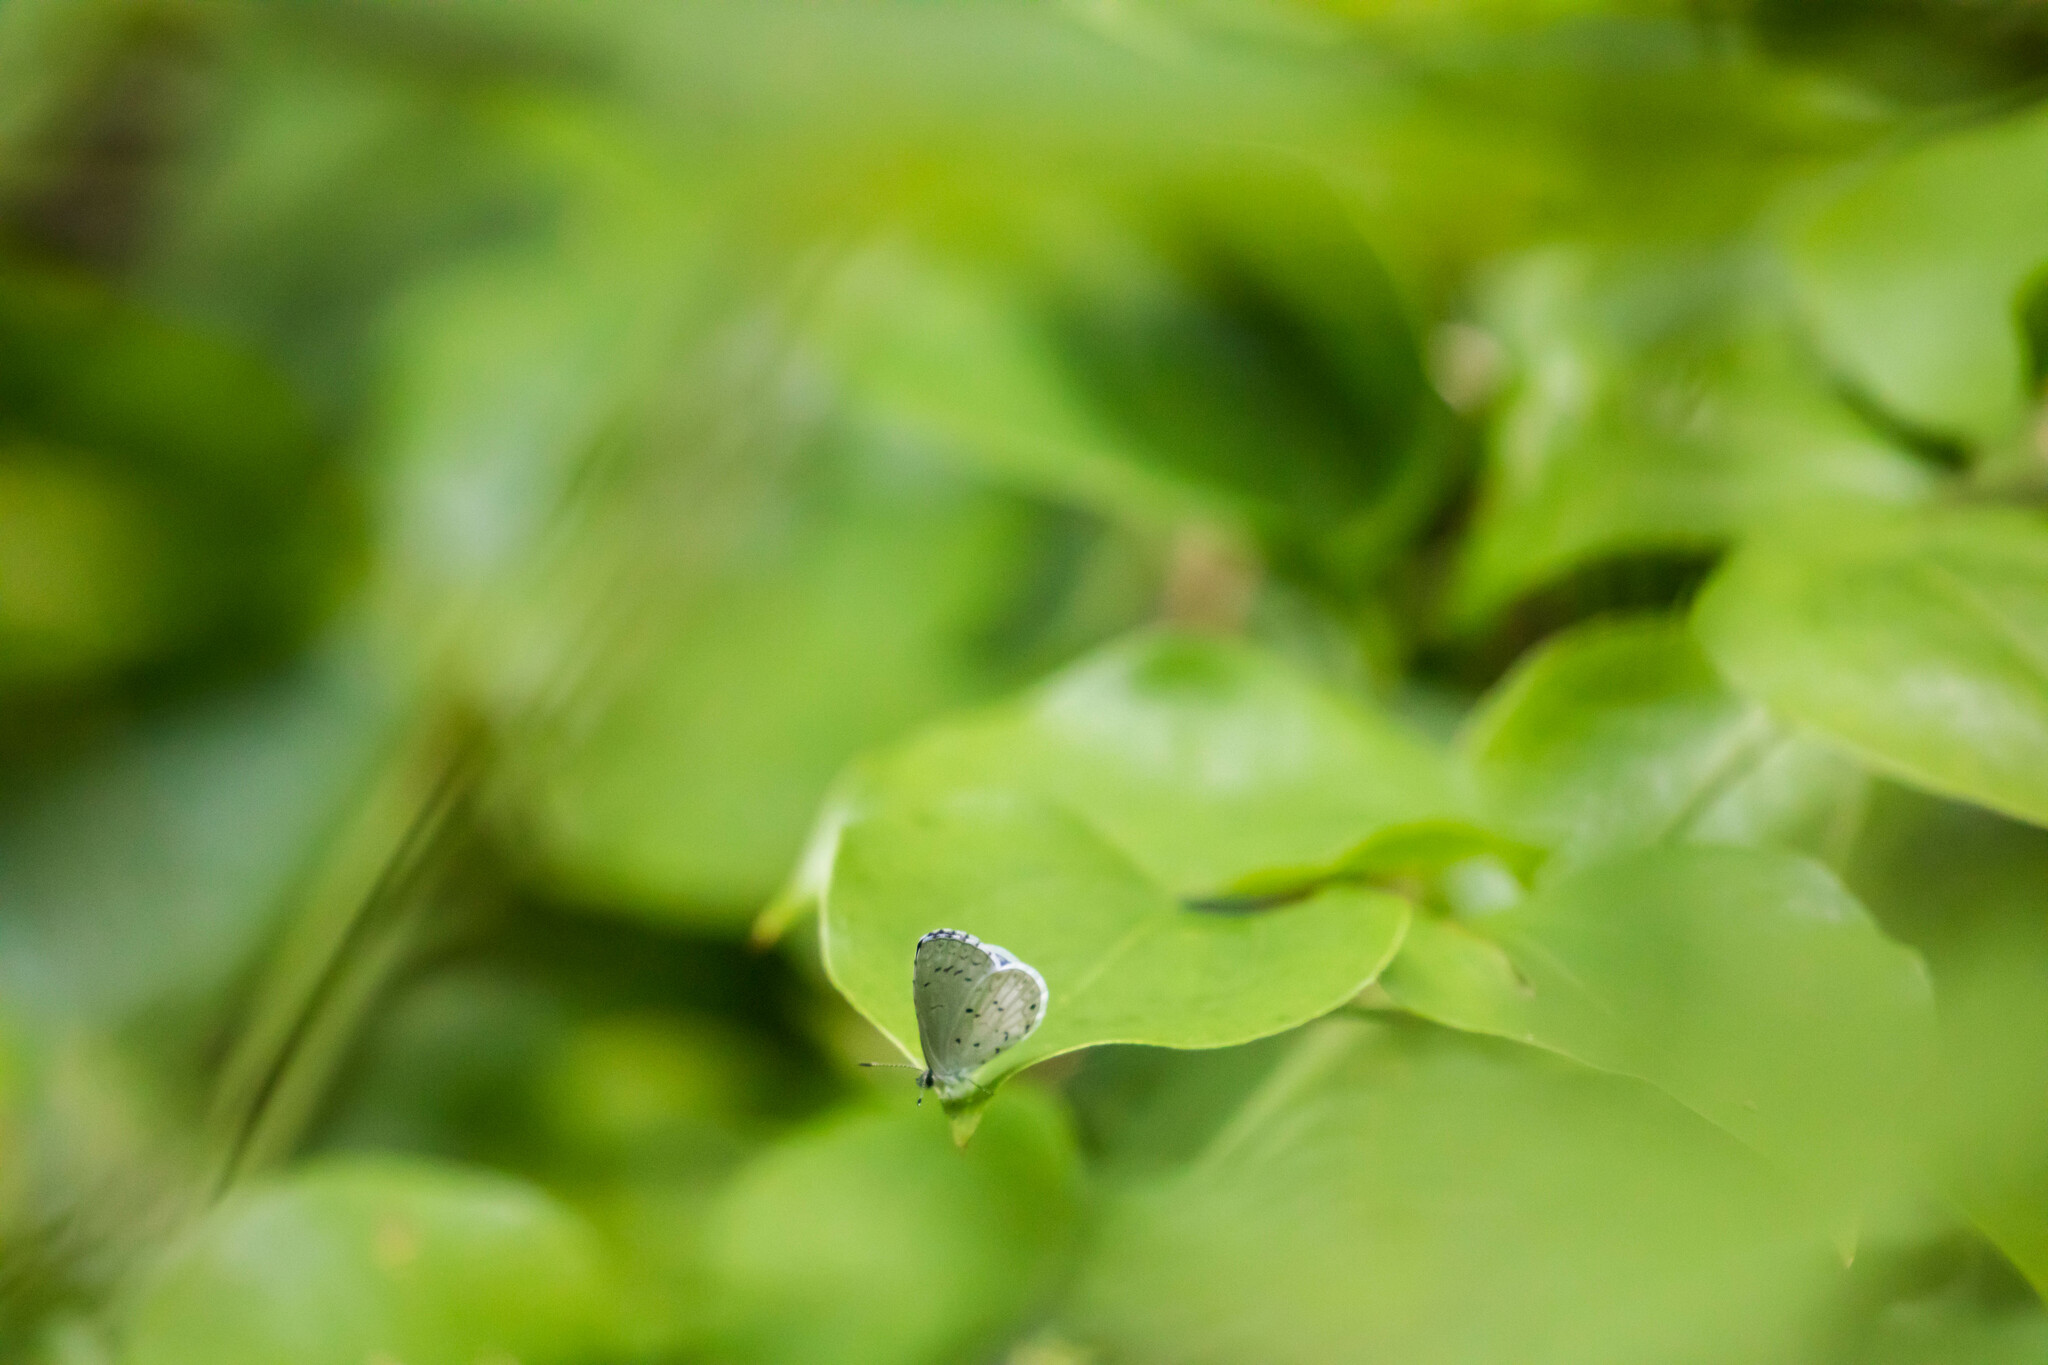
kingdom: Animalia
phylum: Arthropoda
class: Insecta
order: Lepidoptera
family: Lycaenidae
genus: Cyaniris
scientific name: Cyaniris neglecta
